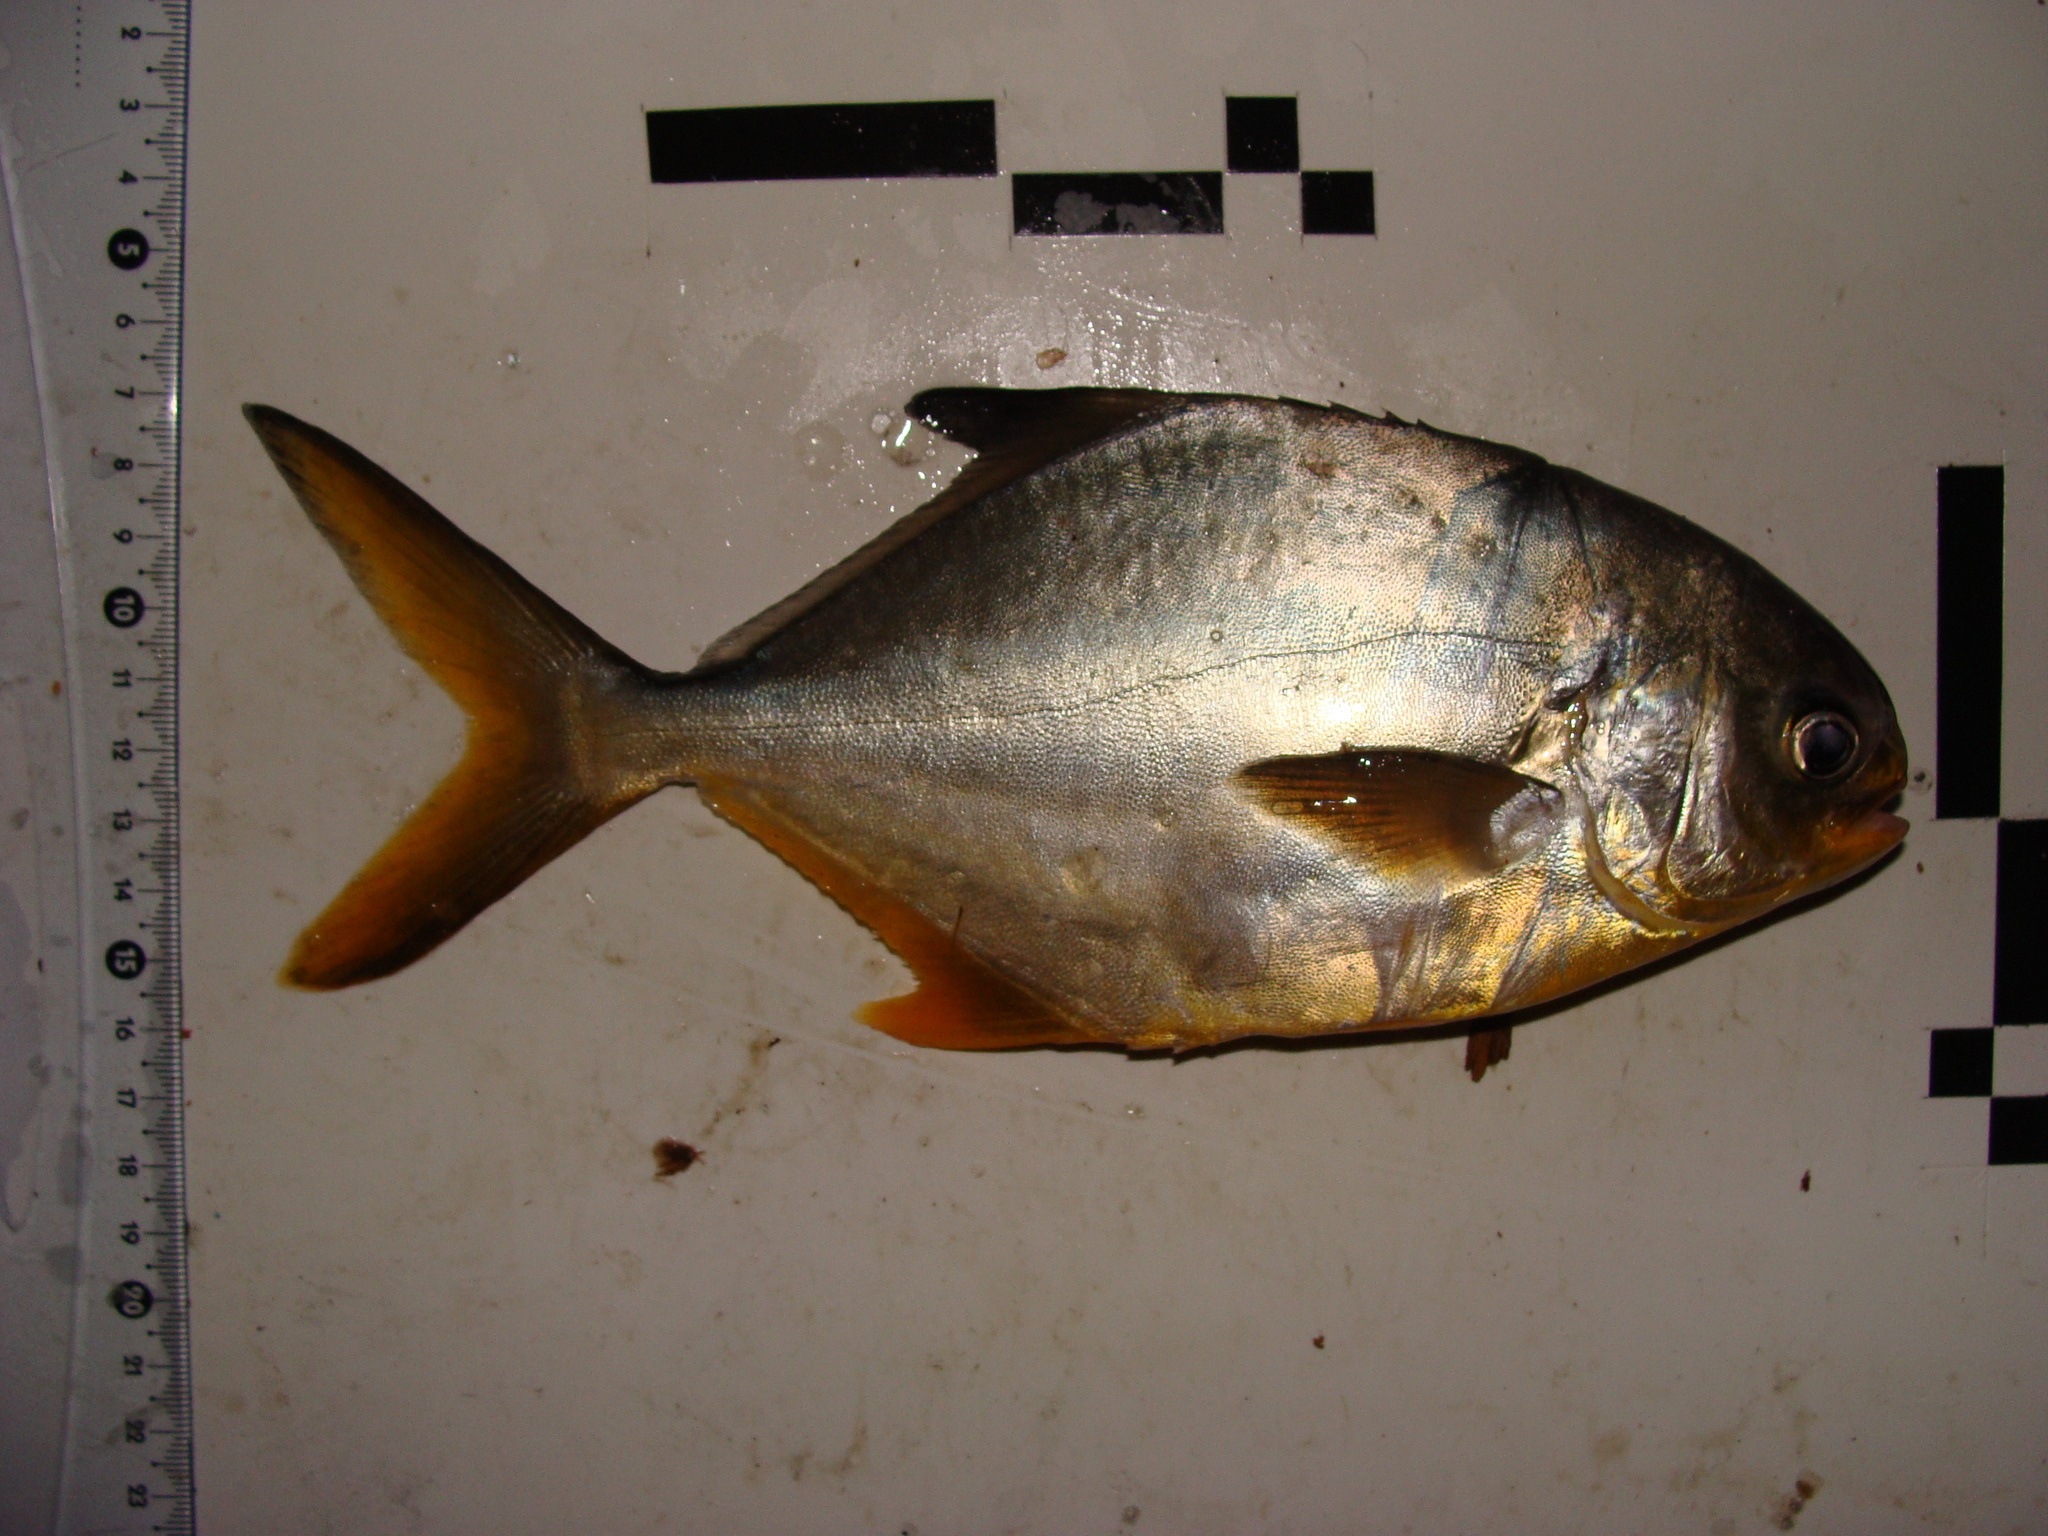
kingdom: Animalia
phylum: Chordata
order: Perciformes
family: Carangidae
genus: Trachinotus
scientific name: Trachinotus carolinus
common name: Florida pompano
